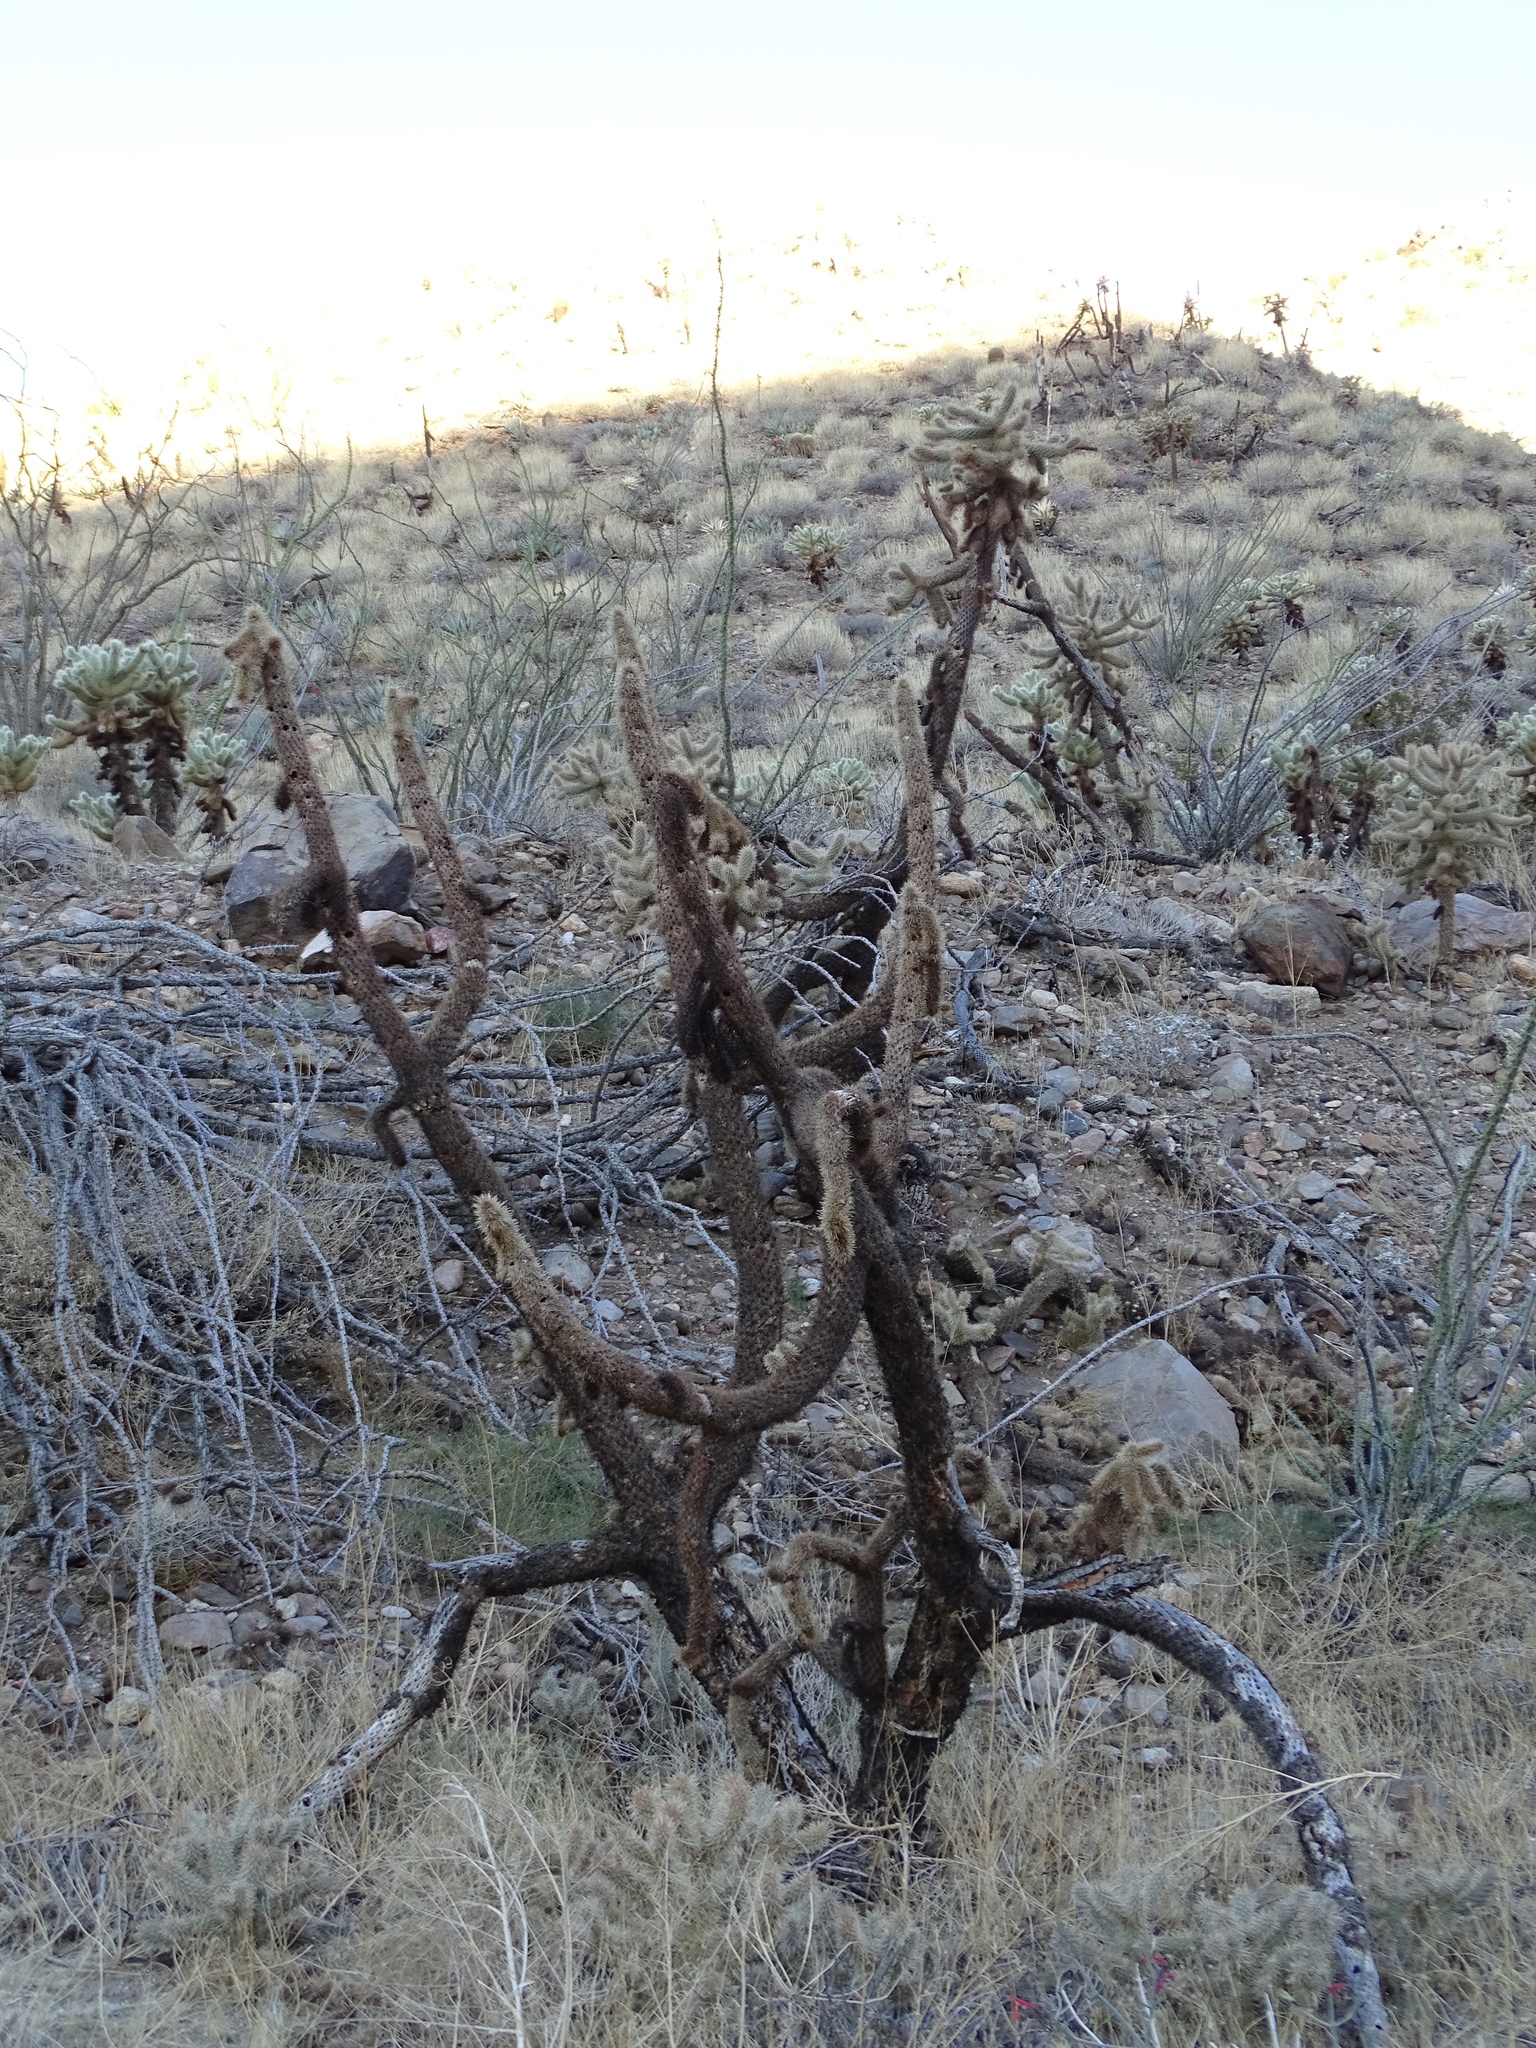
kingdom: Plantae
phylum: Tracheophyta
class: Magnoliopsida
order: Caryophyllales
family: Cactaceae
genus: Cylindropuntia
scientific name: Cylindropuntia fosbergii
